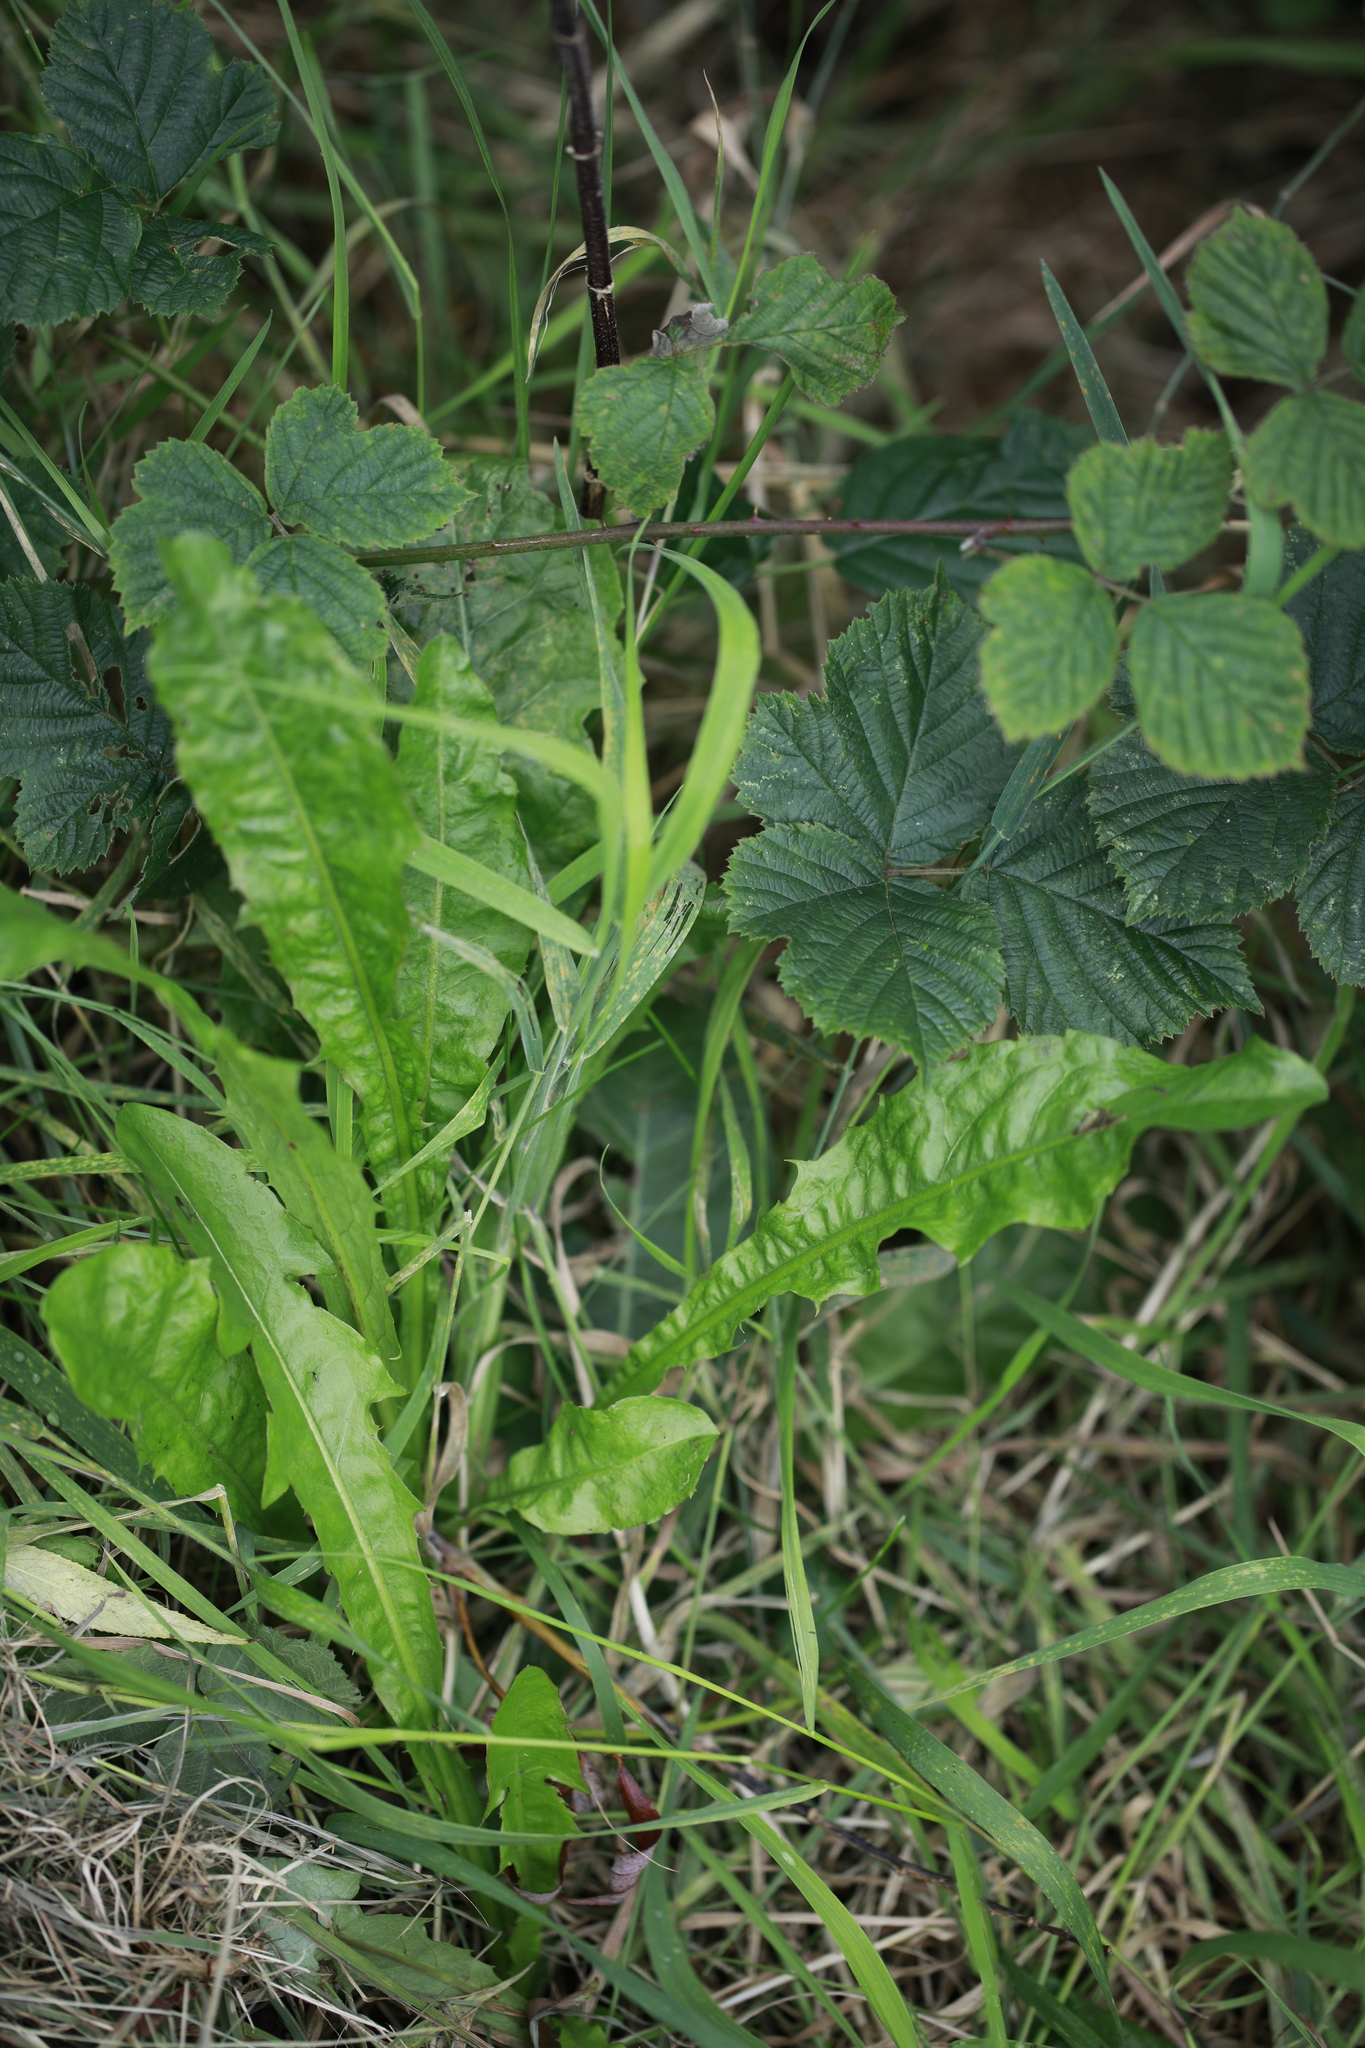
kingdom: Plantae
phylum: Tracheophyta
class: Magnoliopsida
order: Asterales
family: Asteraceae
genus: Taraxacum
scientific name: Taraxacum officinale
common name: Common dandelion
